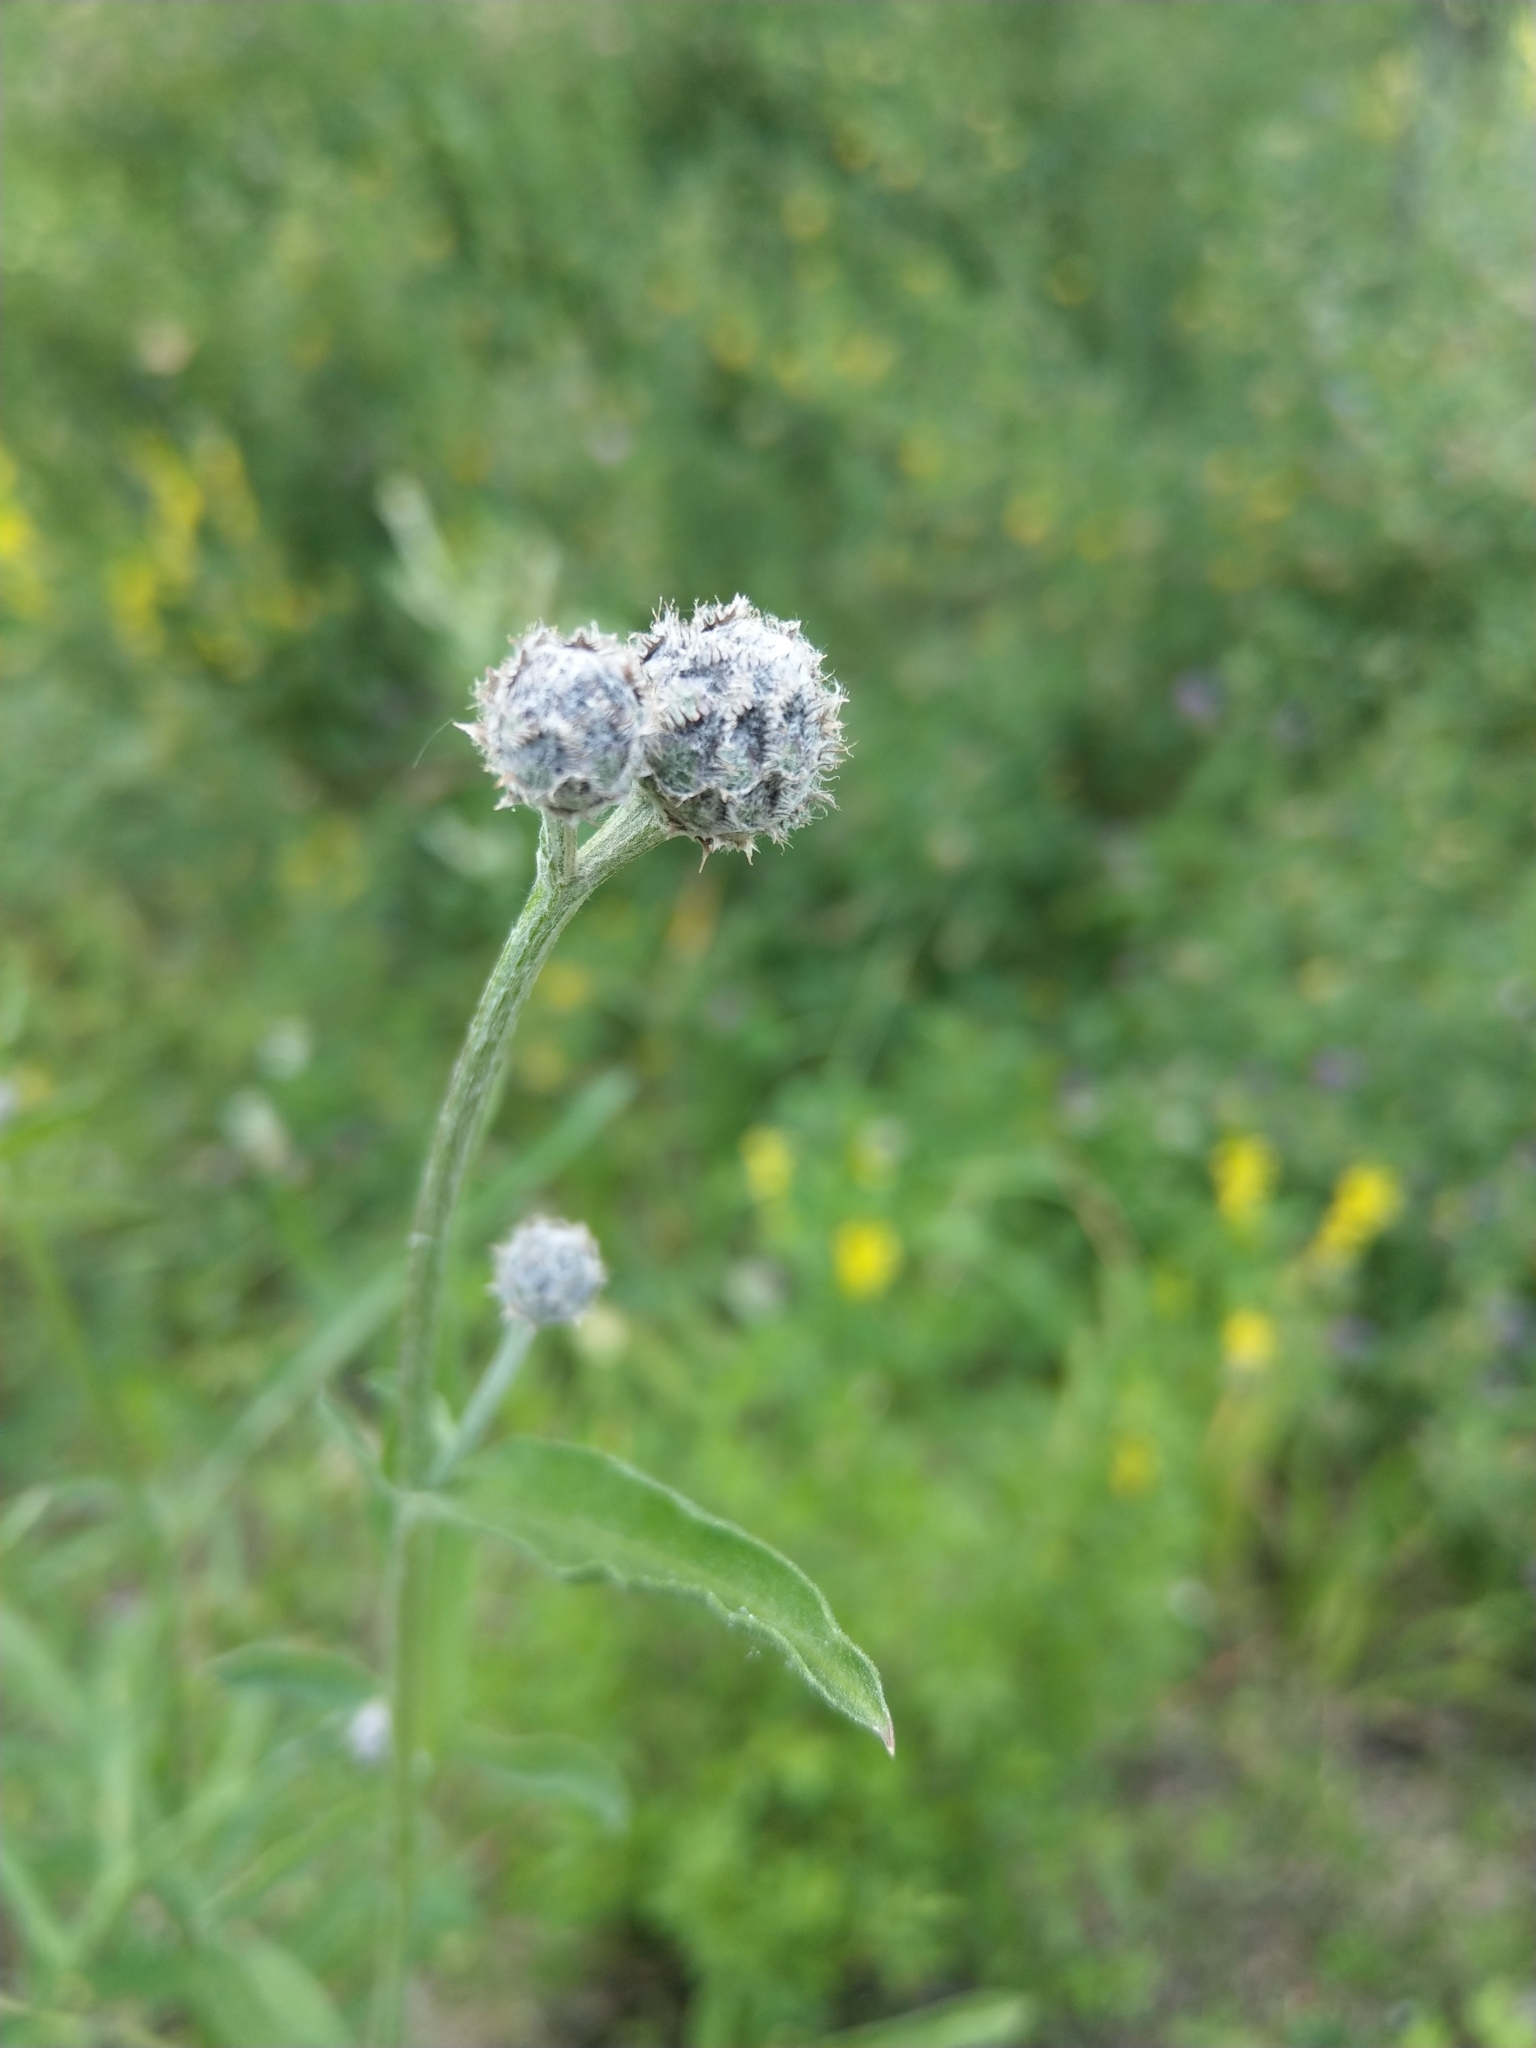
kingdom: Plantae
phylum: Tracheophyta
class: Magnoliopsida
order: Asterales
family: Asteraceae
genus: Centaurea
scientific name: Centaurea scabiosa
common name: Greater knapweed
